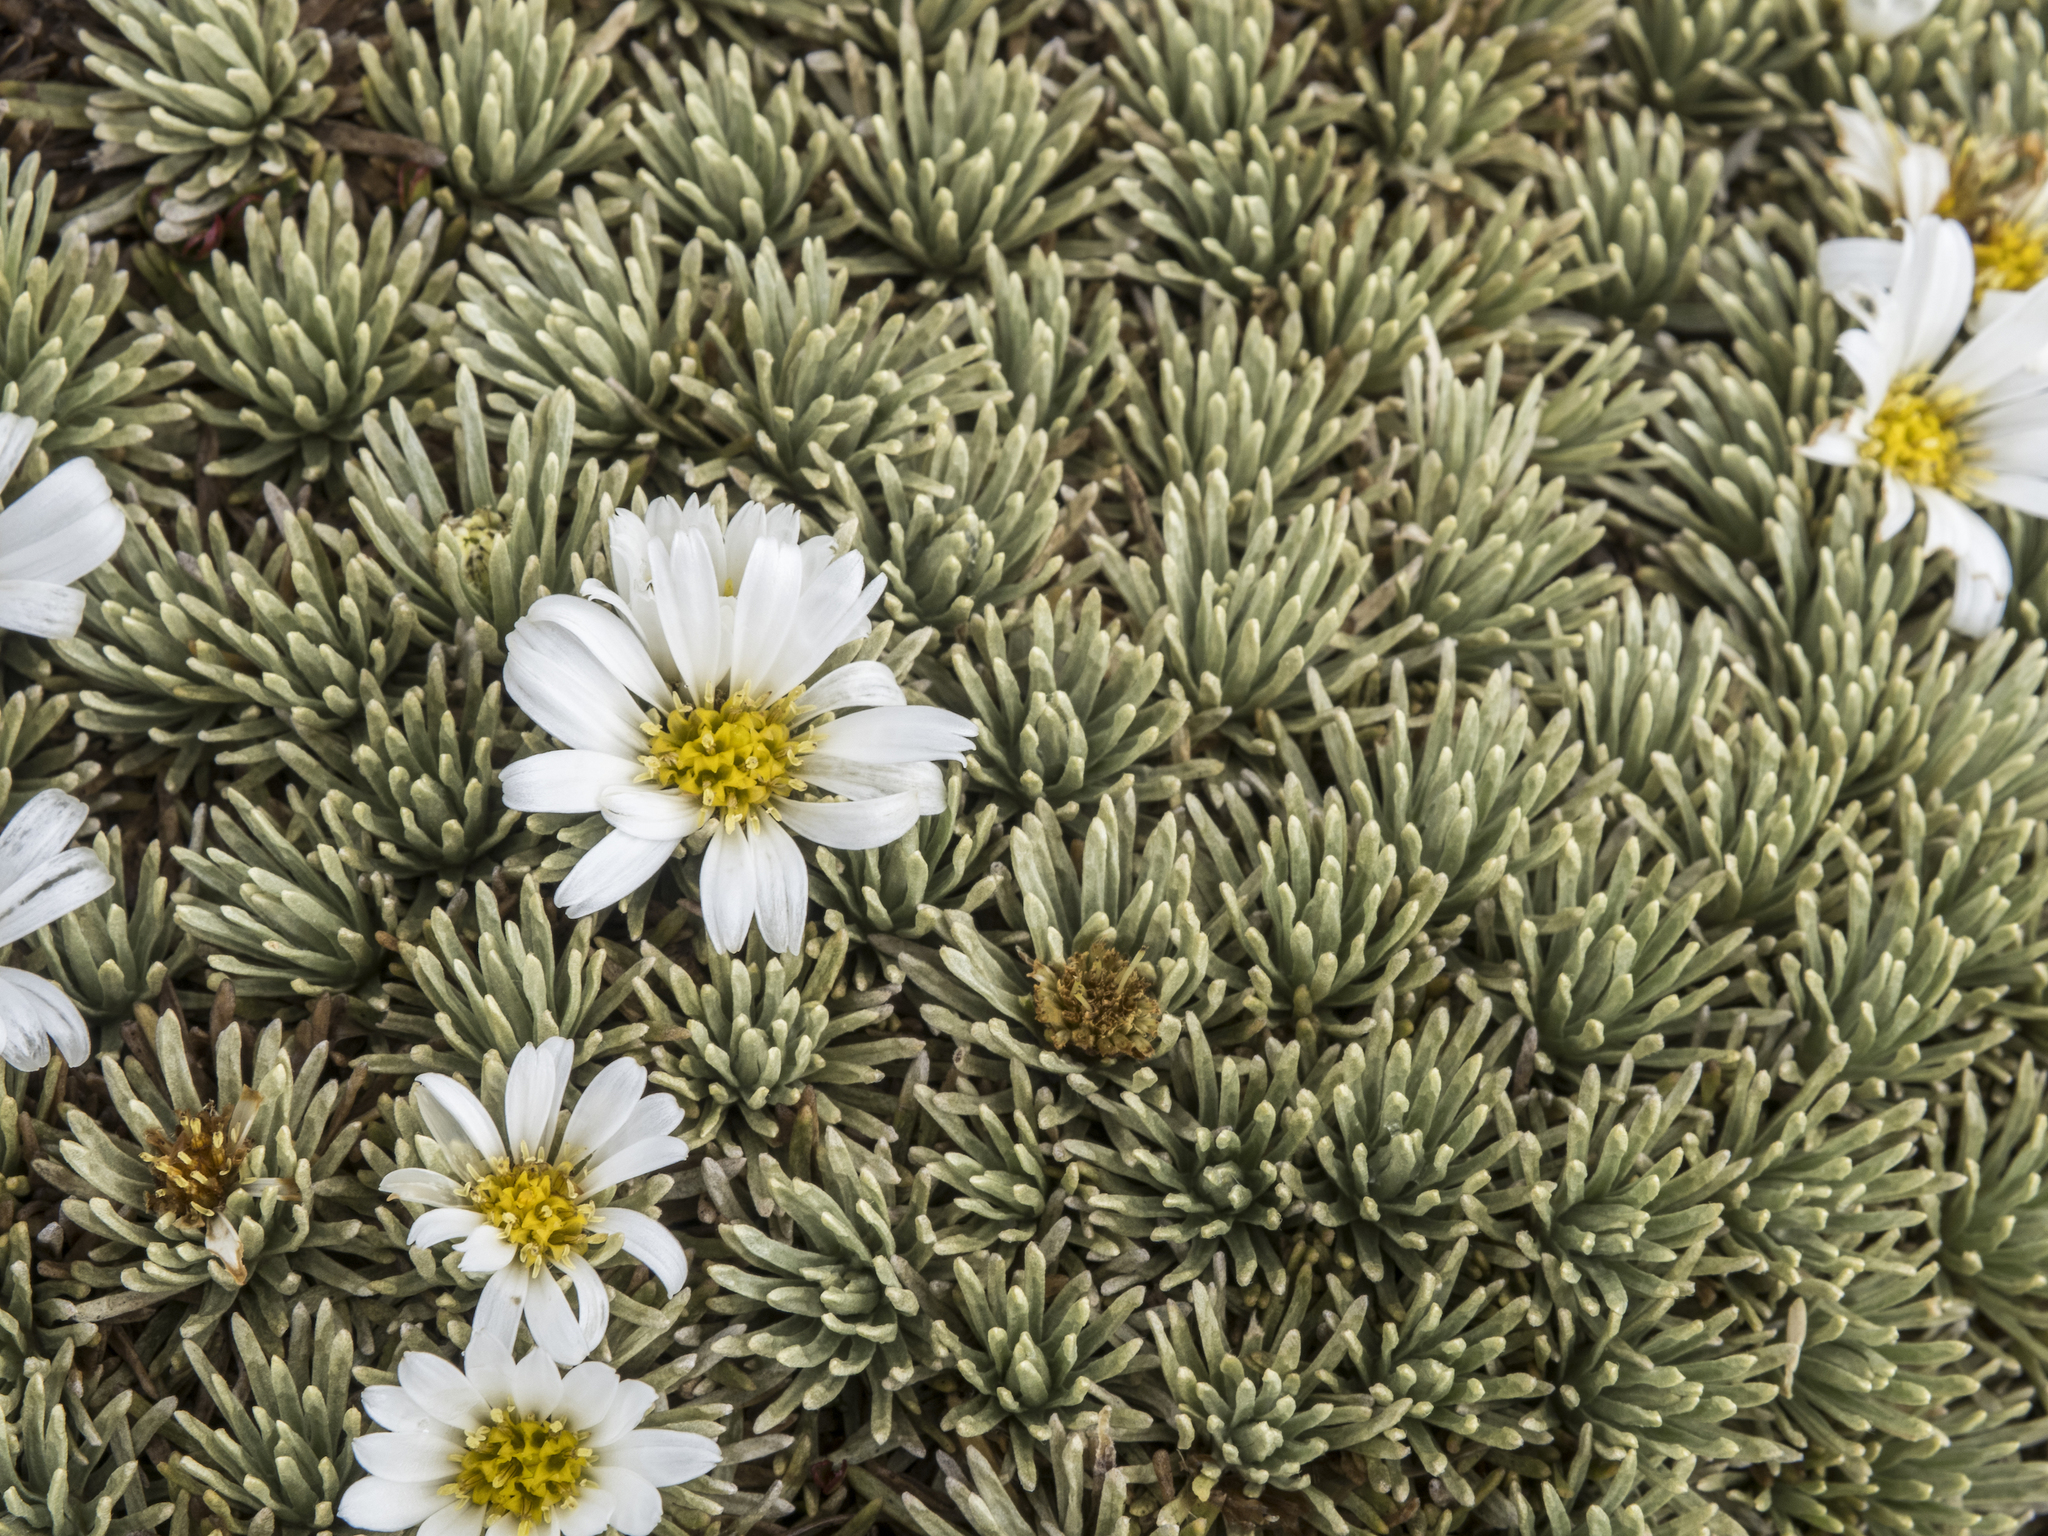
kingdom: Plantae
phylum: Tracheophyta
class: Magnoliopsida
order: Asterales
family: Asteraceae
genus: Celmisia
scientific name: Celmisia sessiliflora
